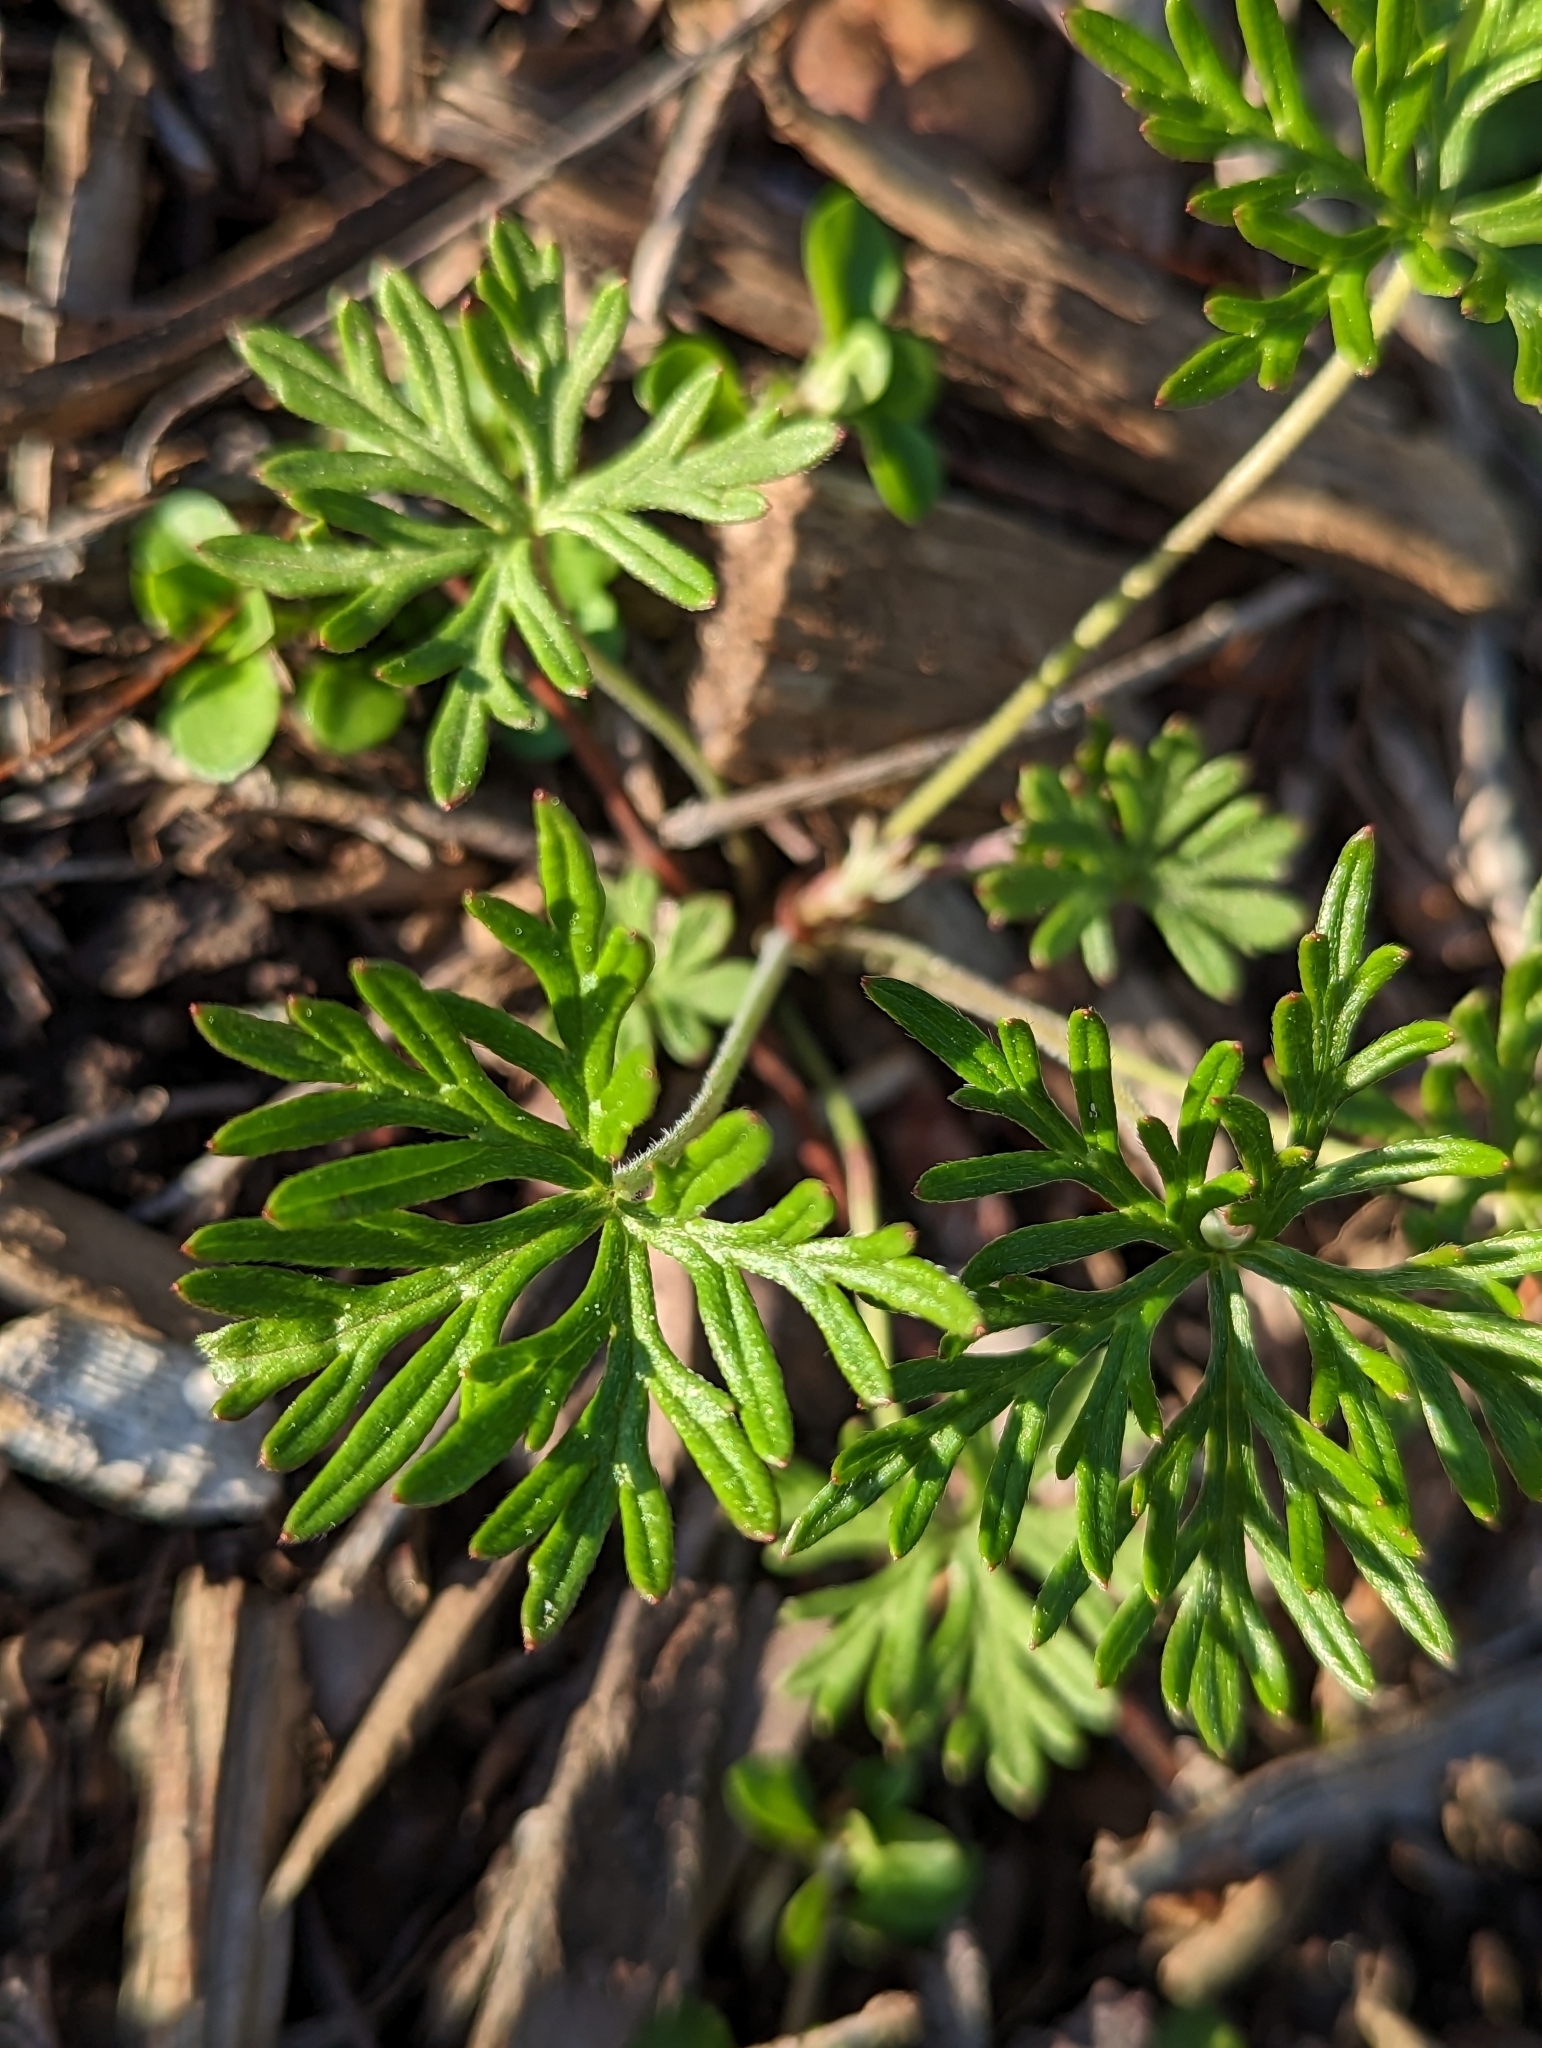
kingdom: Plantae
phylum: Tracheophyta
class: Magnoliopsida
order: Geraniales
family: Geraniaceae
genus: Geranium
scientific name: Geranium
